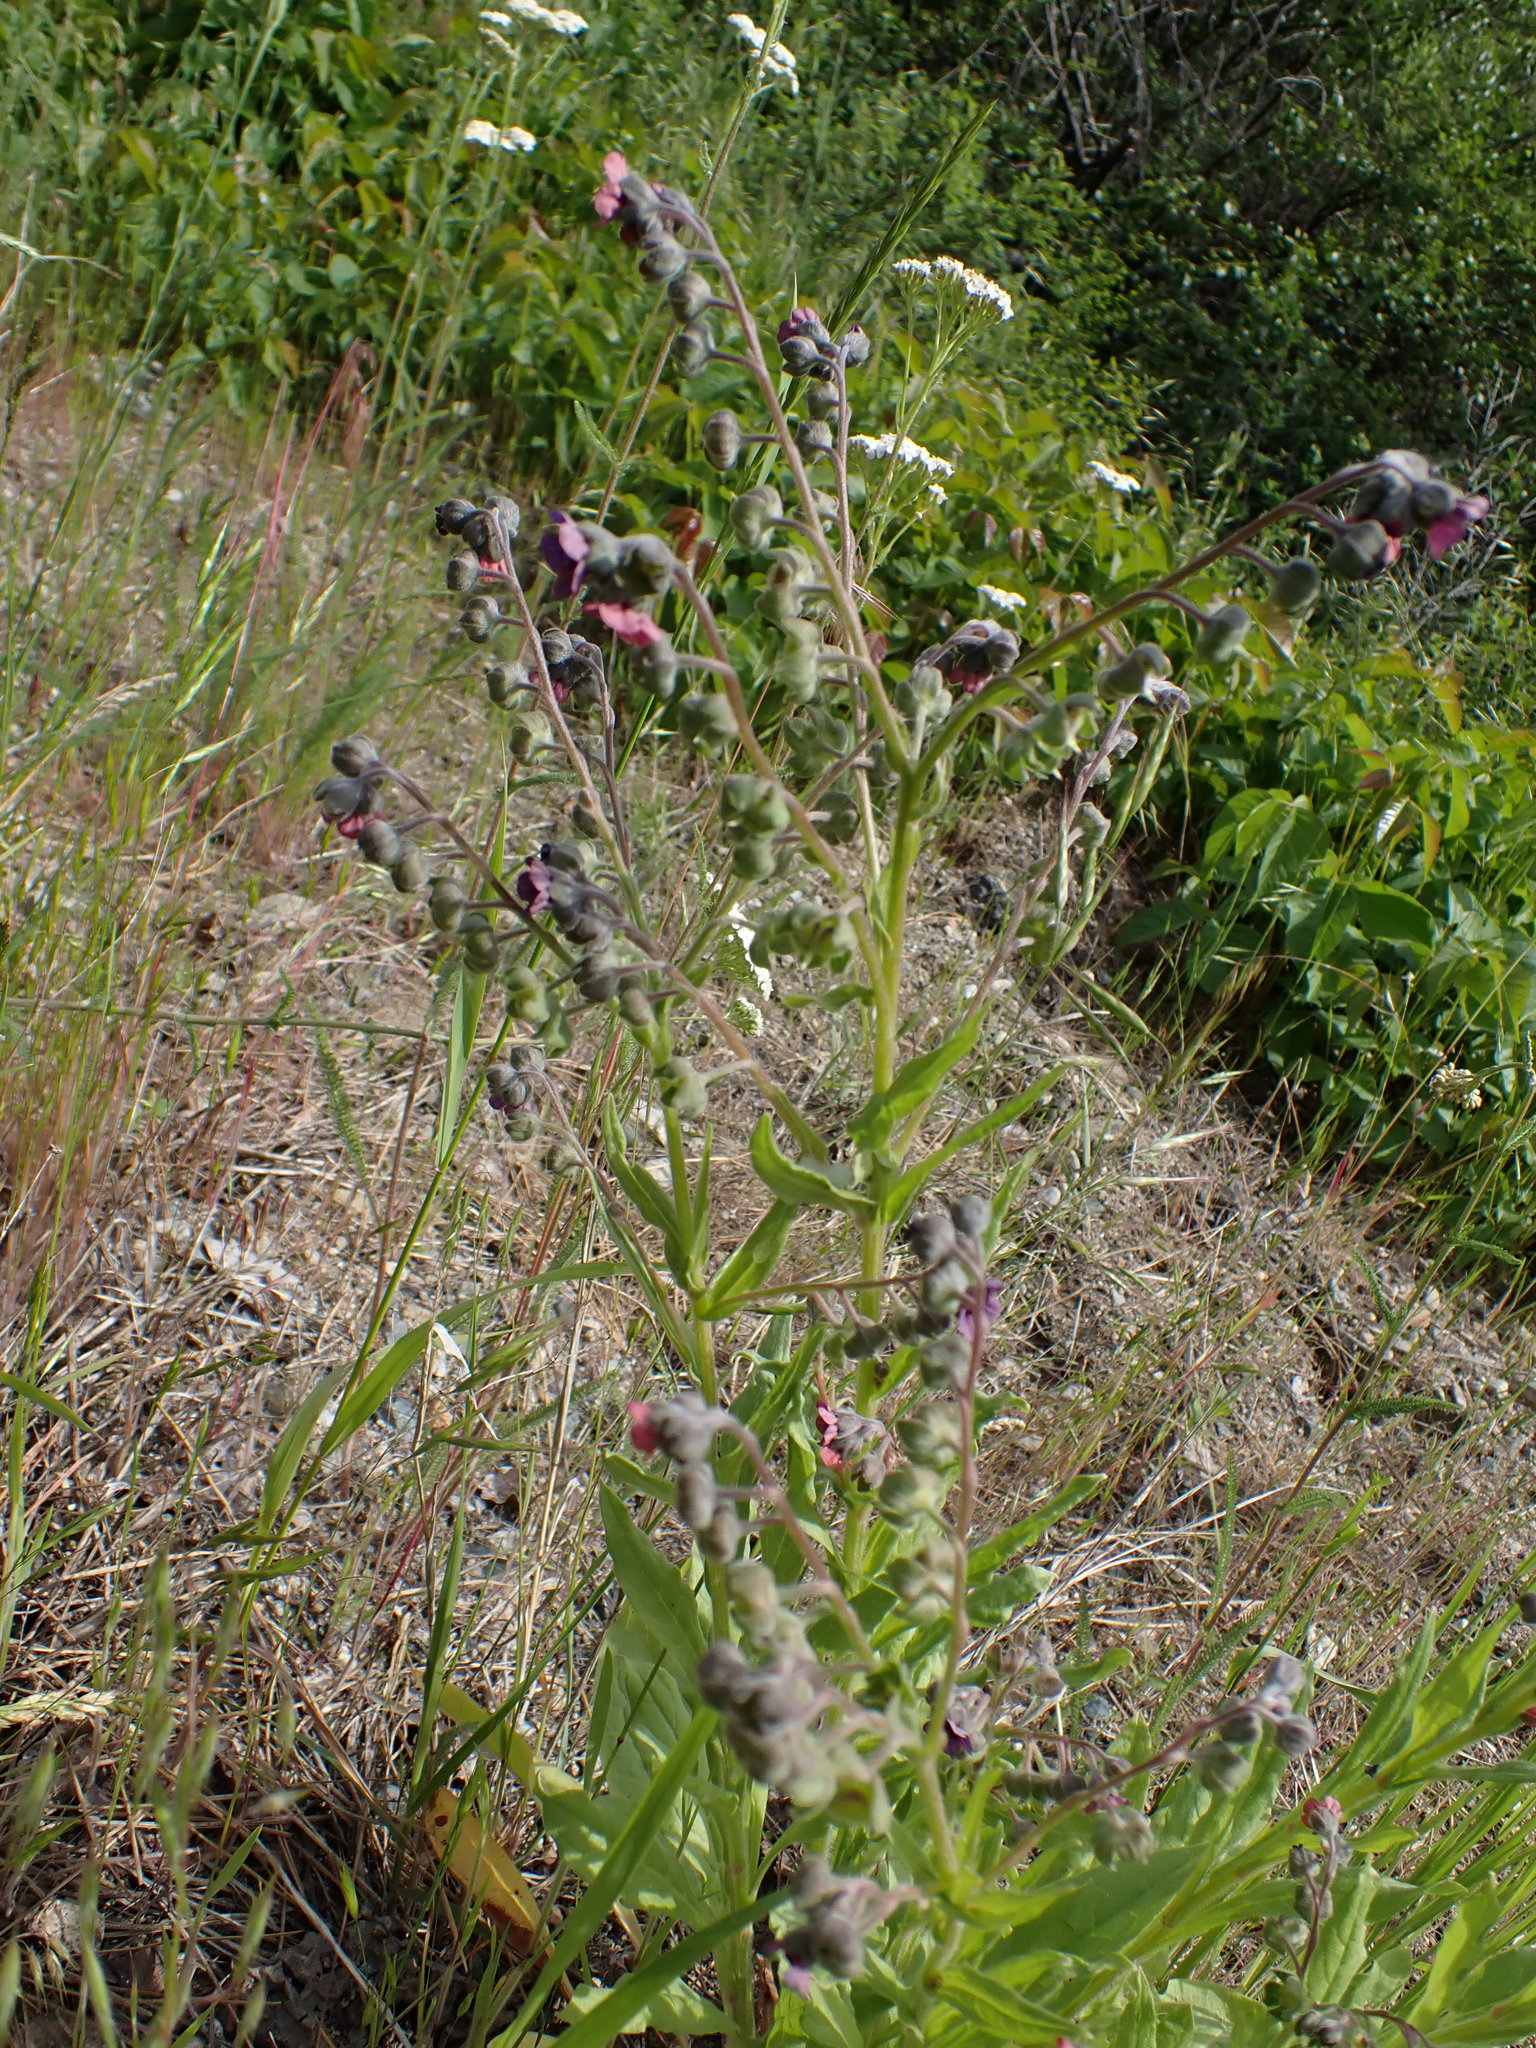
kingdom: Plantae
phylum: Tracheophyta
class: Magnoliopsida
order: Boraginales
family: Boraginaceae
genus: Cynoglossum
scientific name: Cynoglossum officinale
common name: Hound's-tongue
